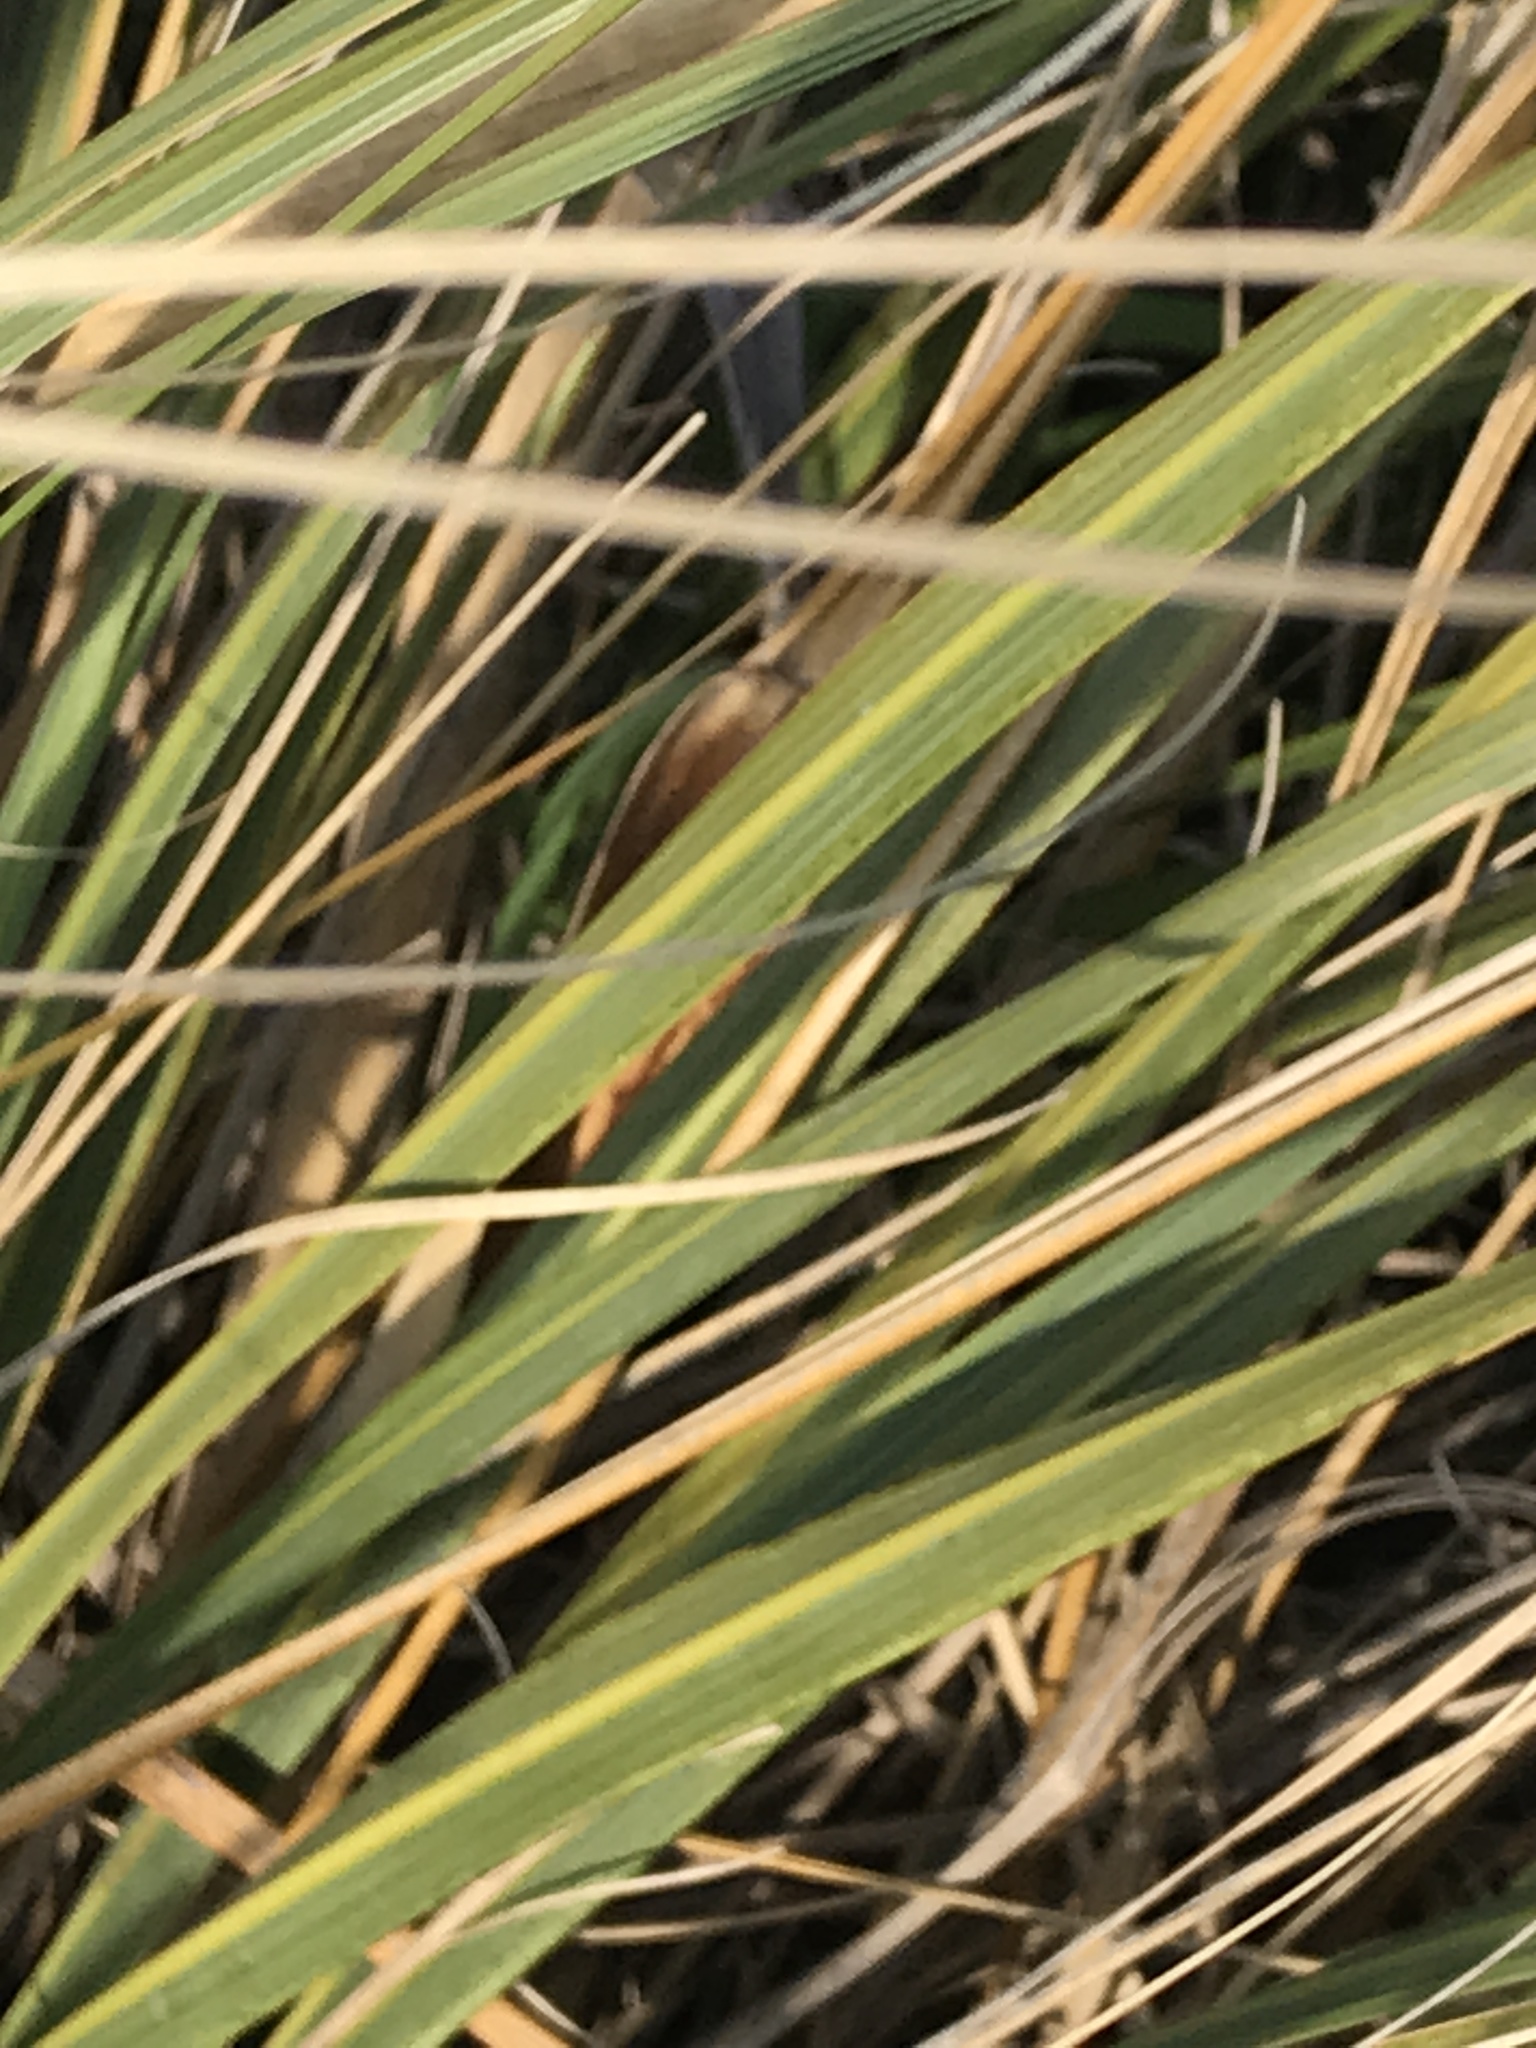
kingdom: Plantae
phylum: Tracheophyta
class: Liliopsida
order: Poales
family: Poaceae
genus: Austroderia
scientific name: Austroderia richardii
